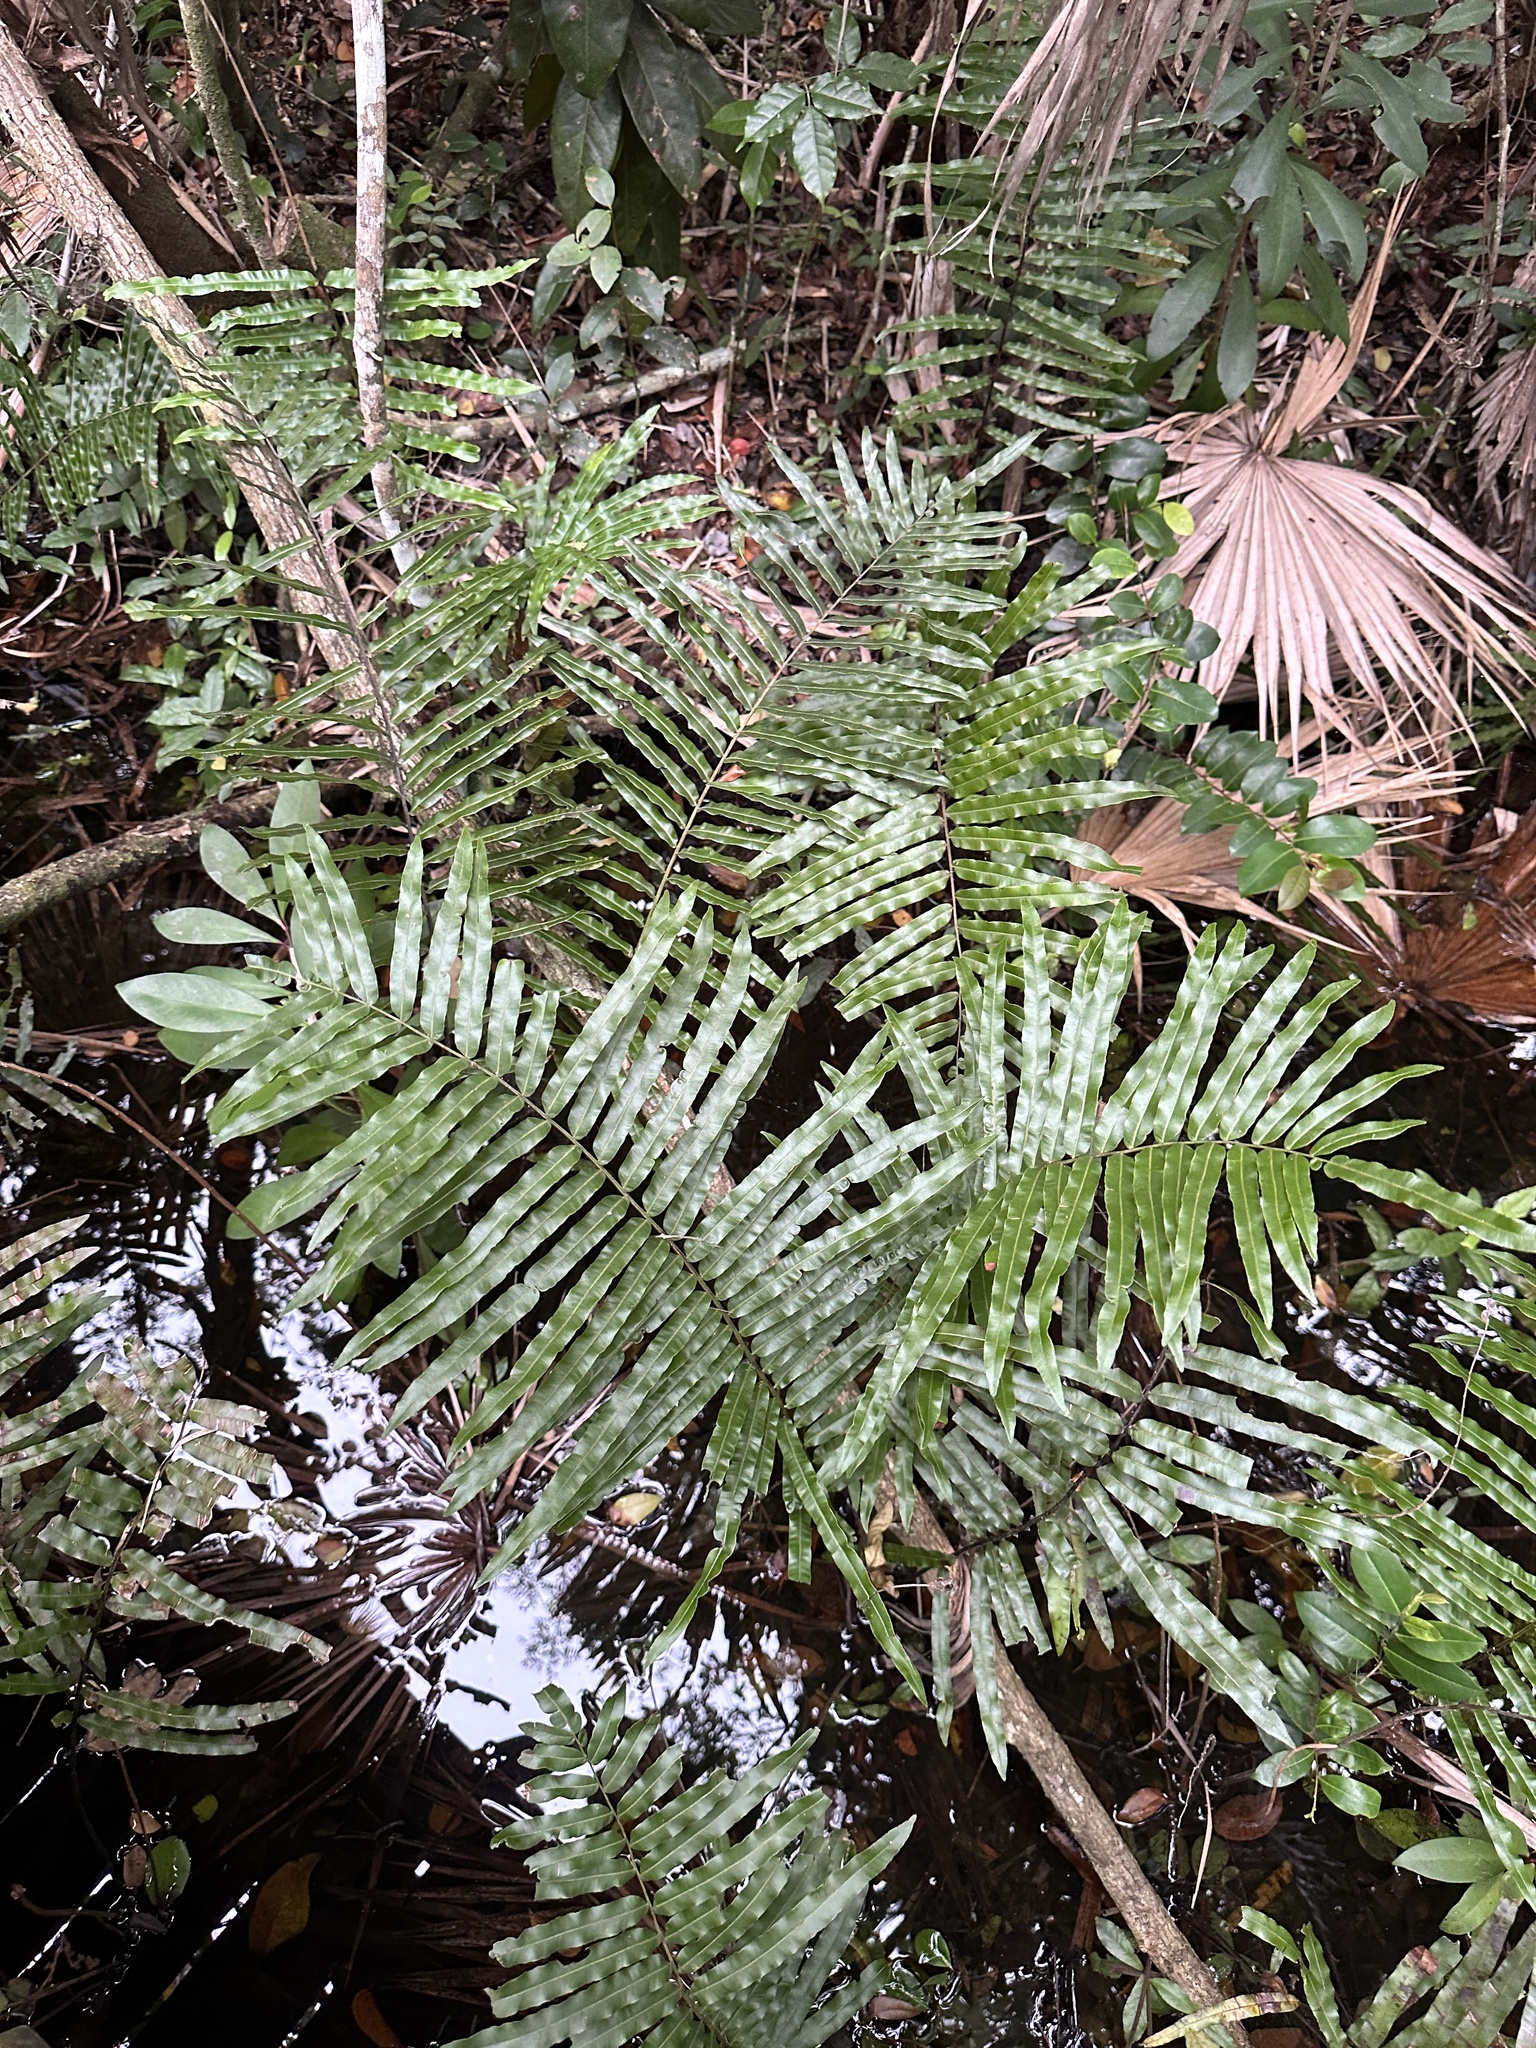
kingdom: Plantae
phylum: Tracheophyta
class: Polypodiopsida
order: Polypodiales
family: Blechnaceae
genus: Telmatoblechnum
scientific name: Telmatoblechnum serrulatum
